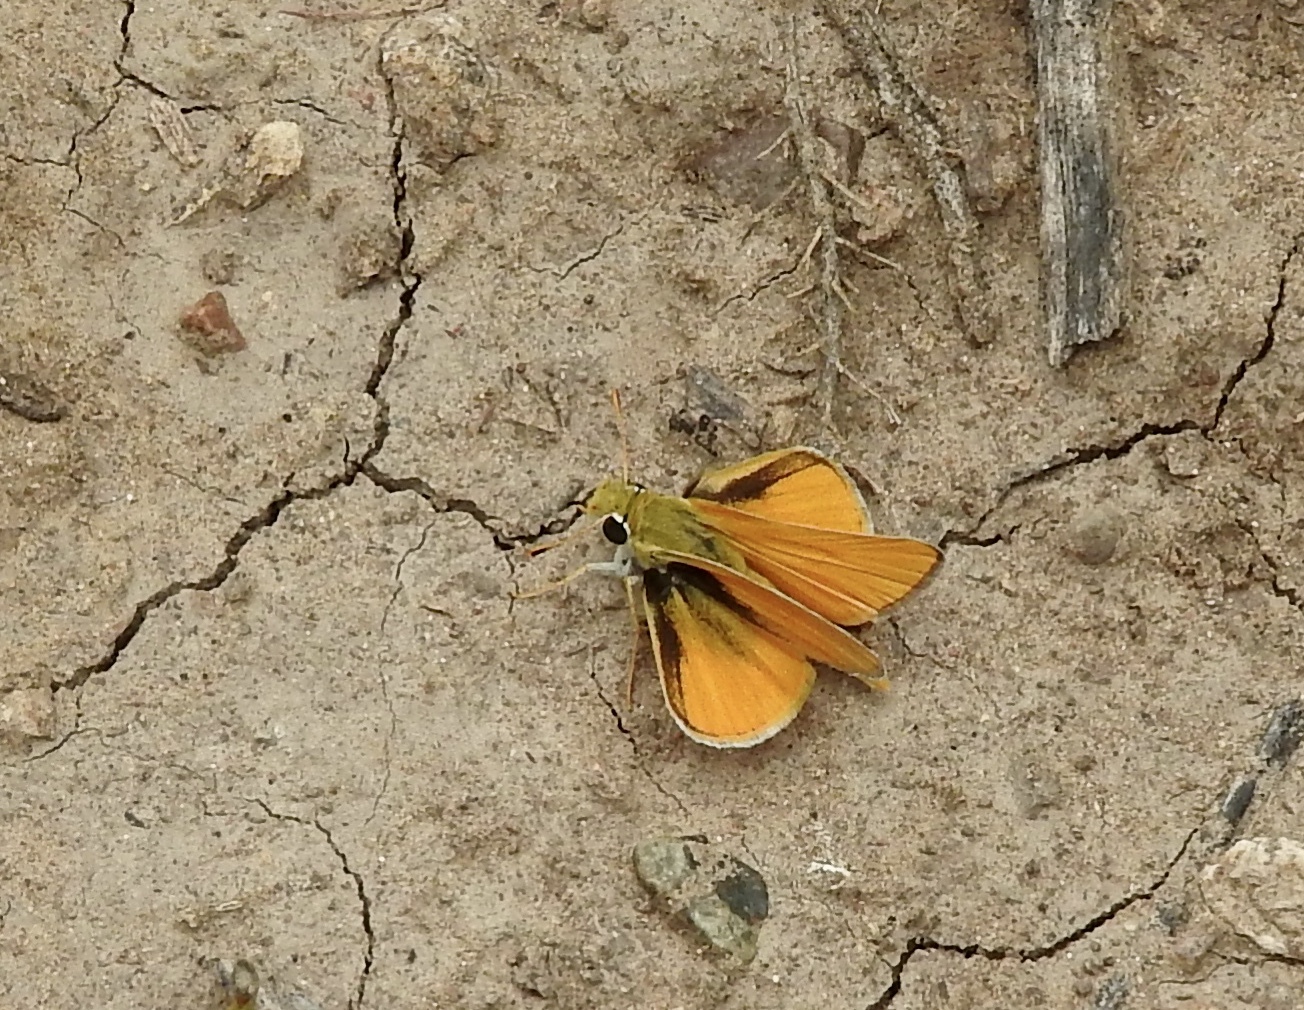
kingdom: Animalia
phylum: Arthropoda
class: Insecta
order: Lepidoptera
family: Hesperiidae
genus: Copaeodes
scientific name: Copaeodes aurantiaca
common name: Orange skipperling
